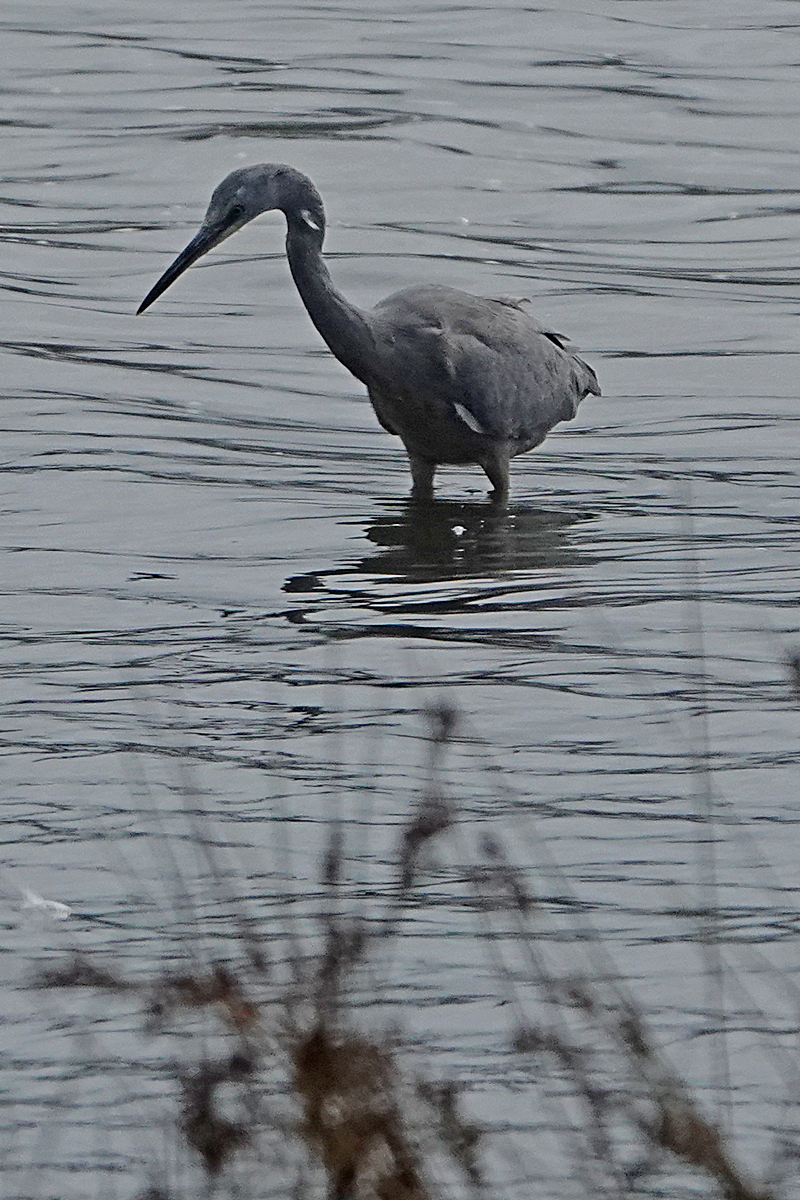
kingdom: Animalia
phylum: Chordata
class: Aves
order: Pelecaniformes
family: Ardeidae
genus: Egretta
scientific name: Egretta novaehollandiae
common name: White-faced heron
